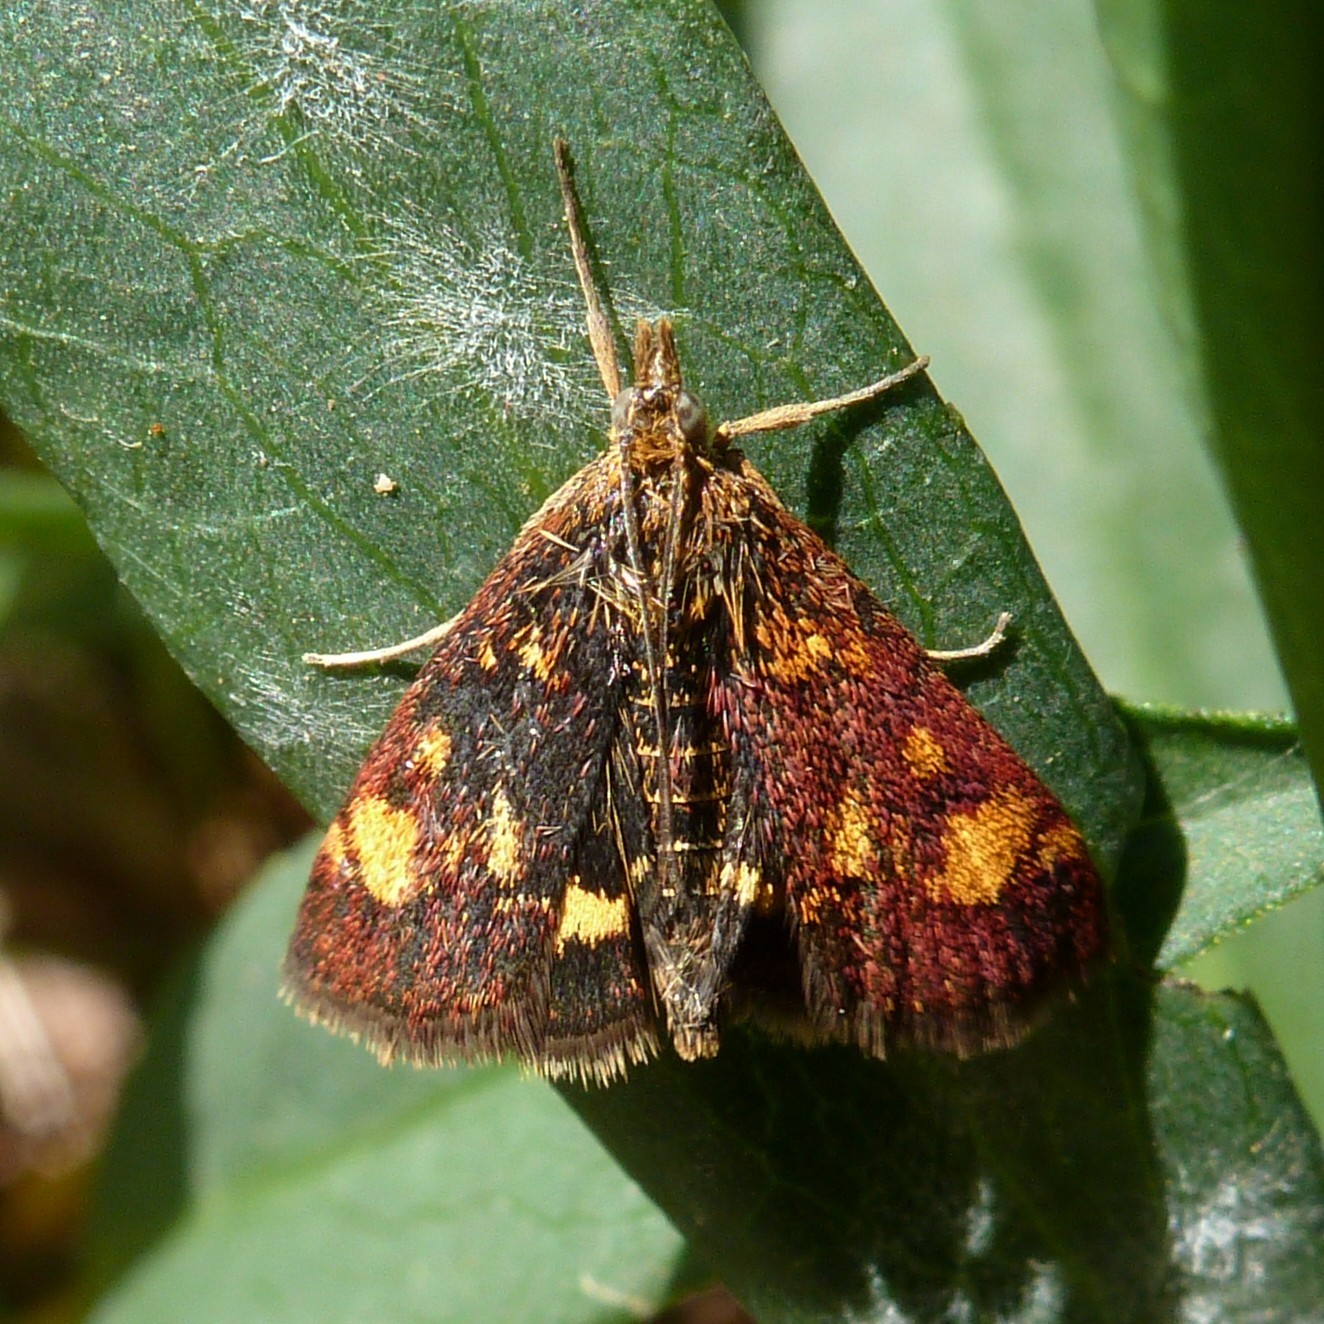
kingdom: Animalia
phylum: Arthropoda
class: Insecta
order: Lepidoptera
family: Crambidae
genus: Pyrausta
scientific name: Pyrausta aurata
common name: Small purple & gold
